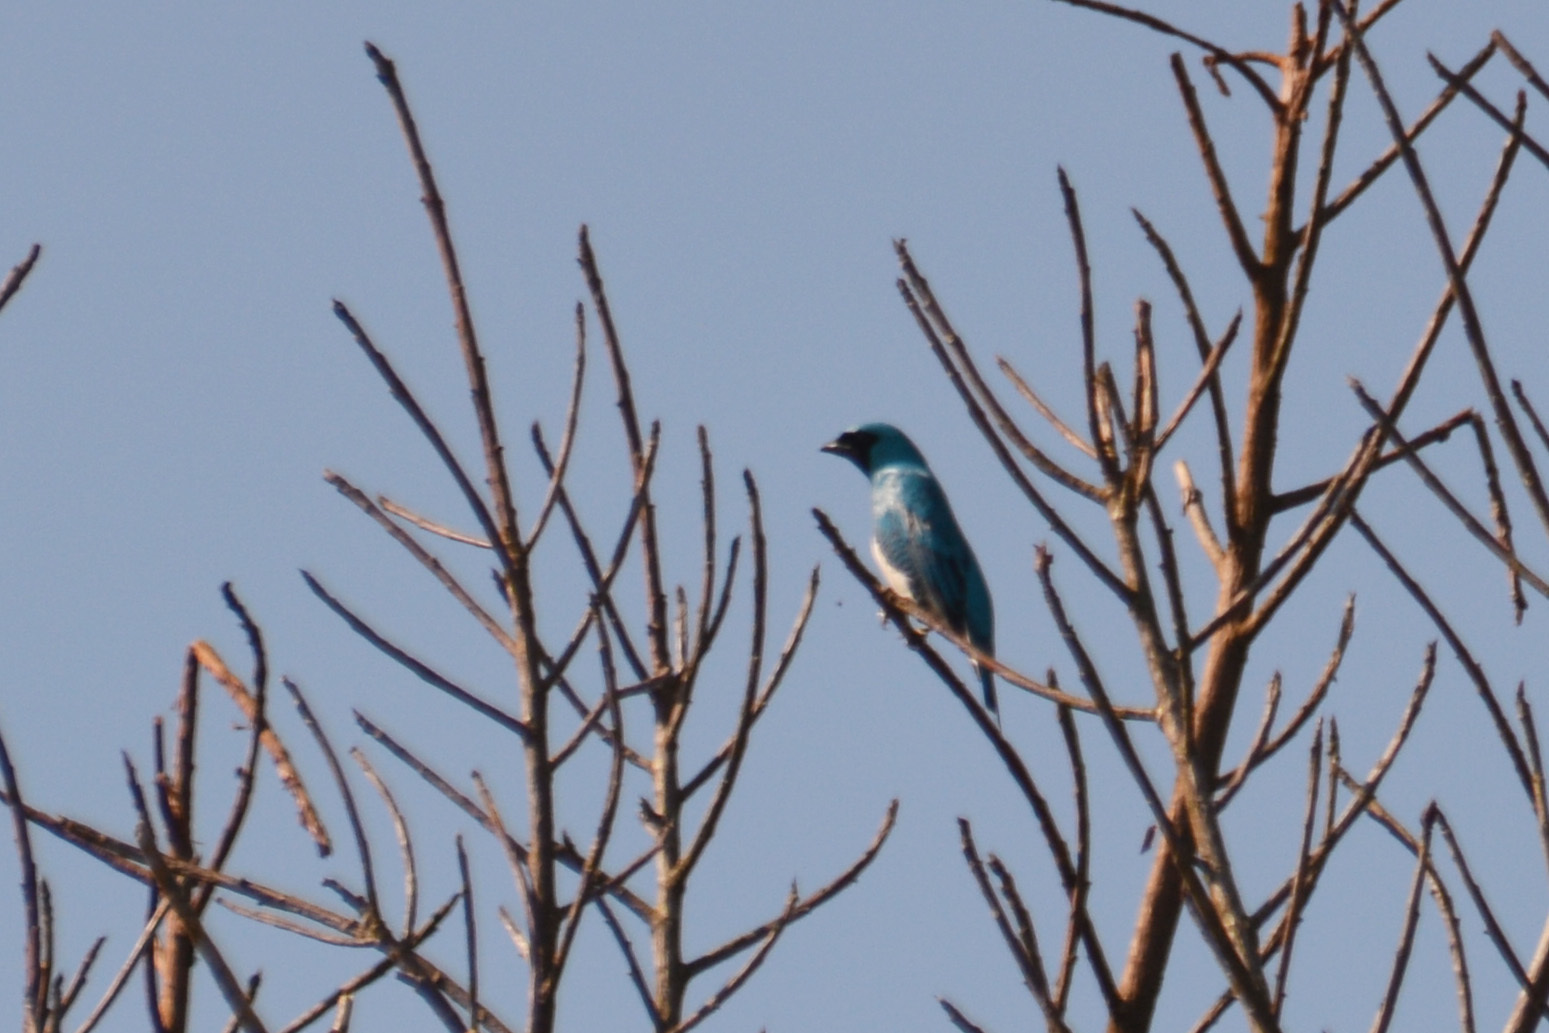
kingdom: Animalia
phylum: Chordata
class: Aves
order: Passeriformes
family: Thraupidae
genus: Tersina
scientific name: Tersina viridis
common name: Swallow tanager
